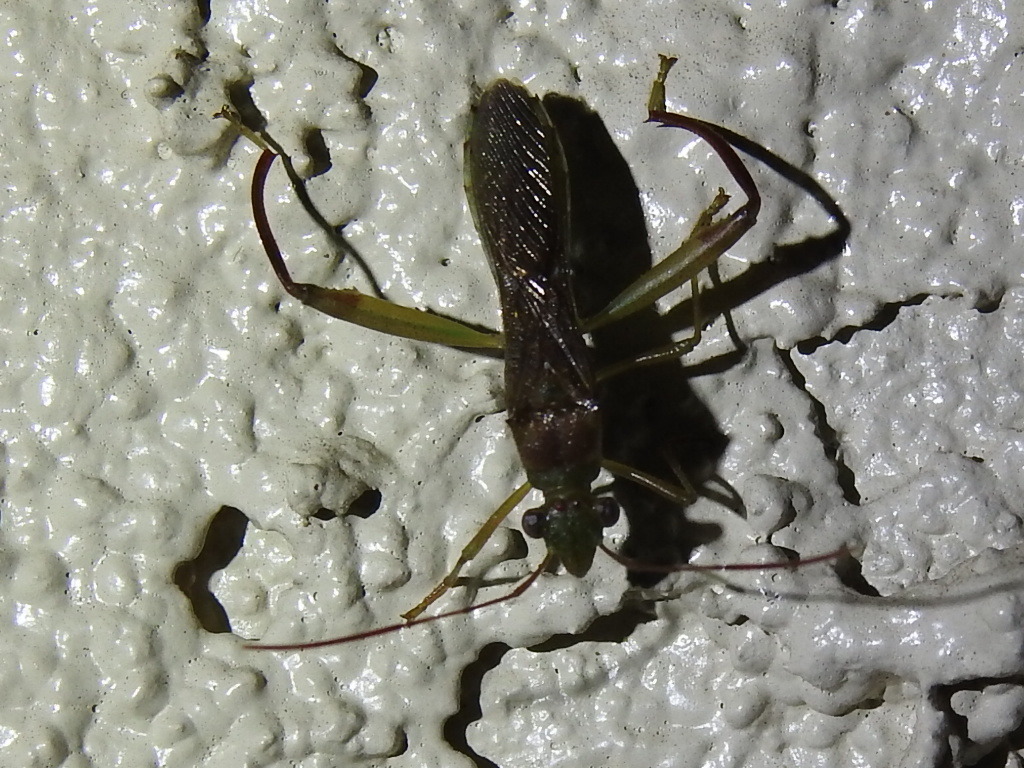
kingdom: Animalia
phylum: Arthropoda
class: Insecta
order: Hemiptera
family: Alydidae
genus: Hyalymenus
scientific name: Hyalymenus tarsatus
